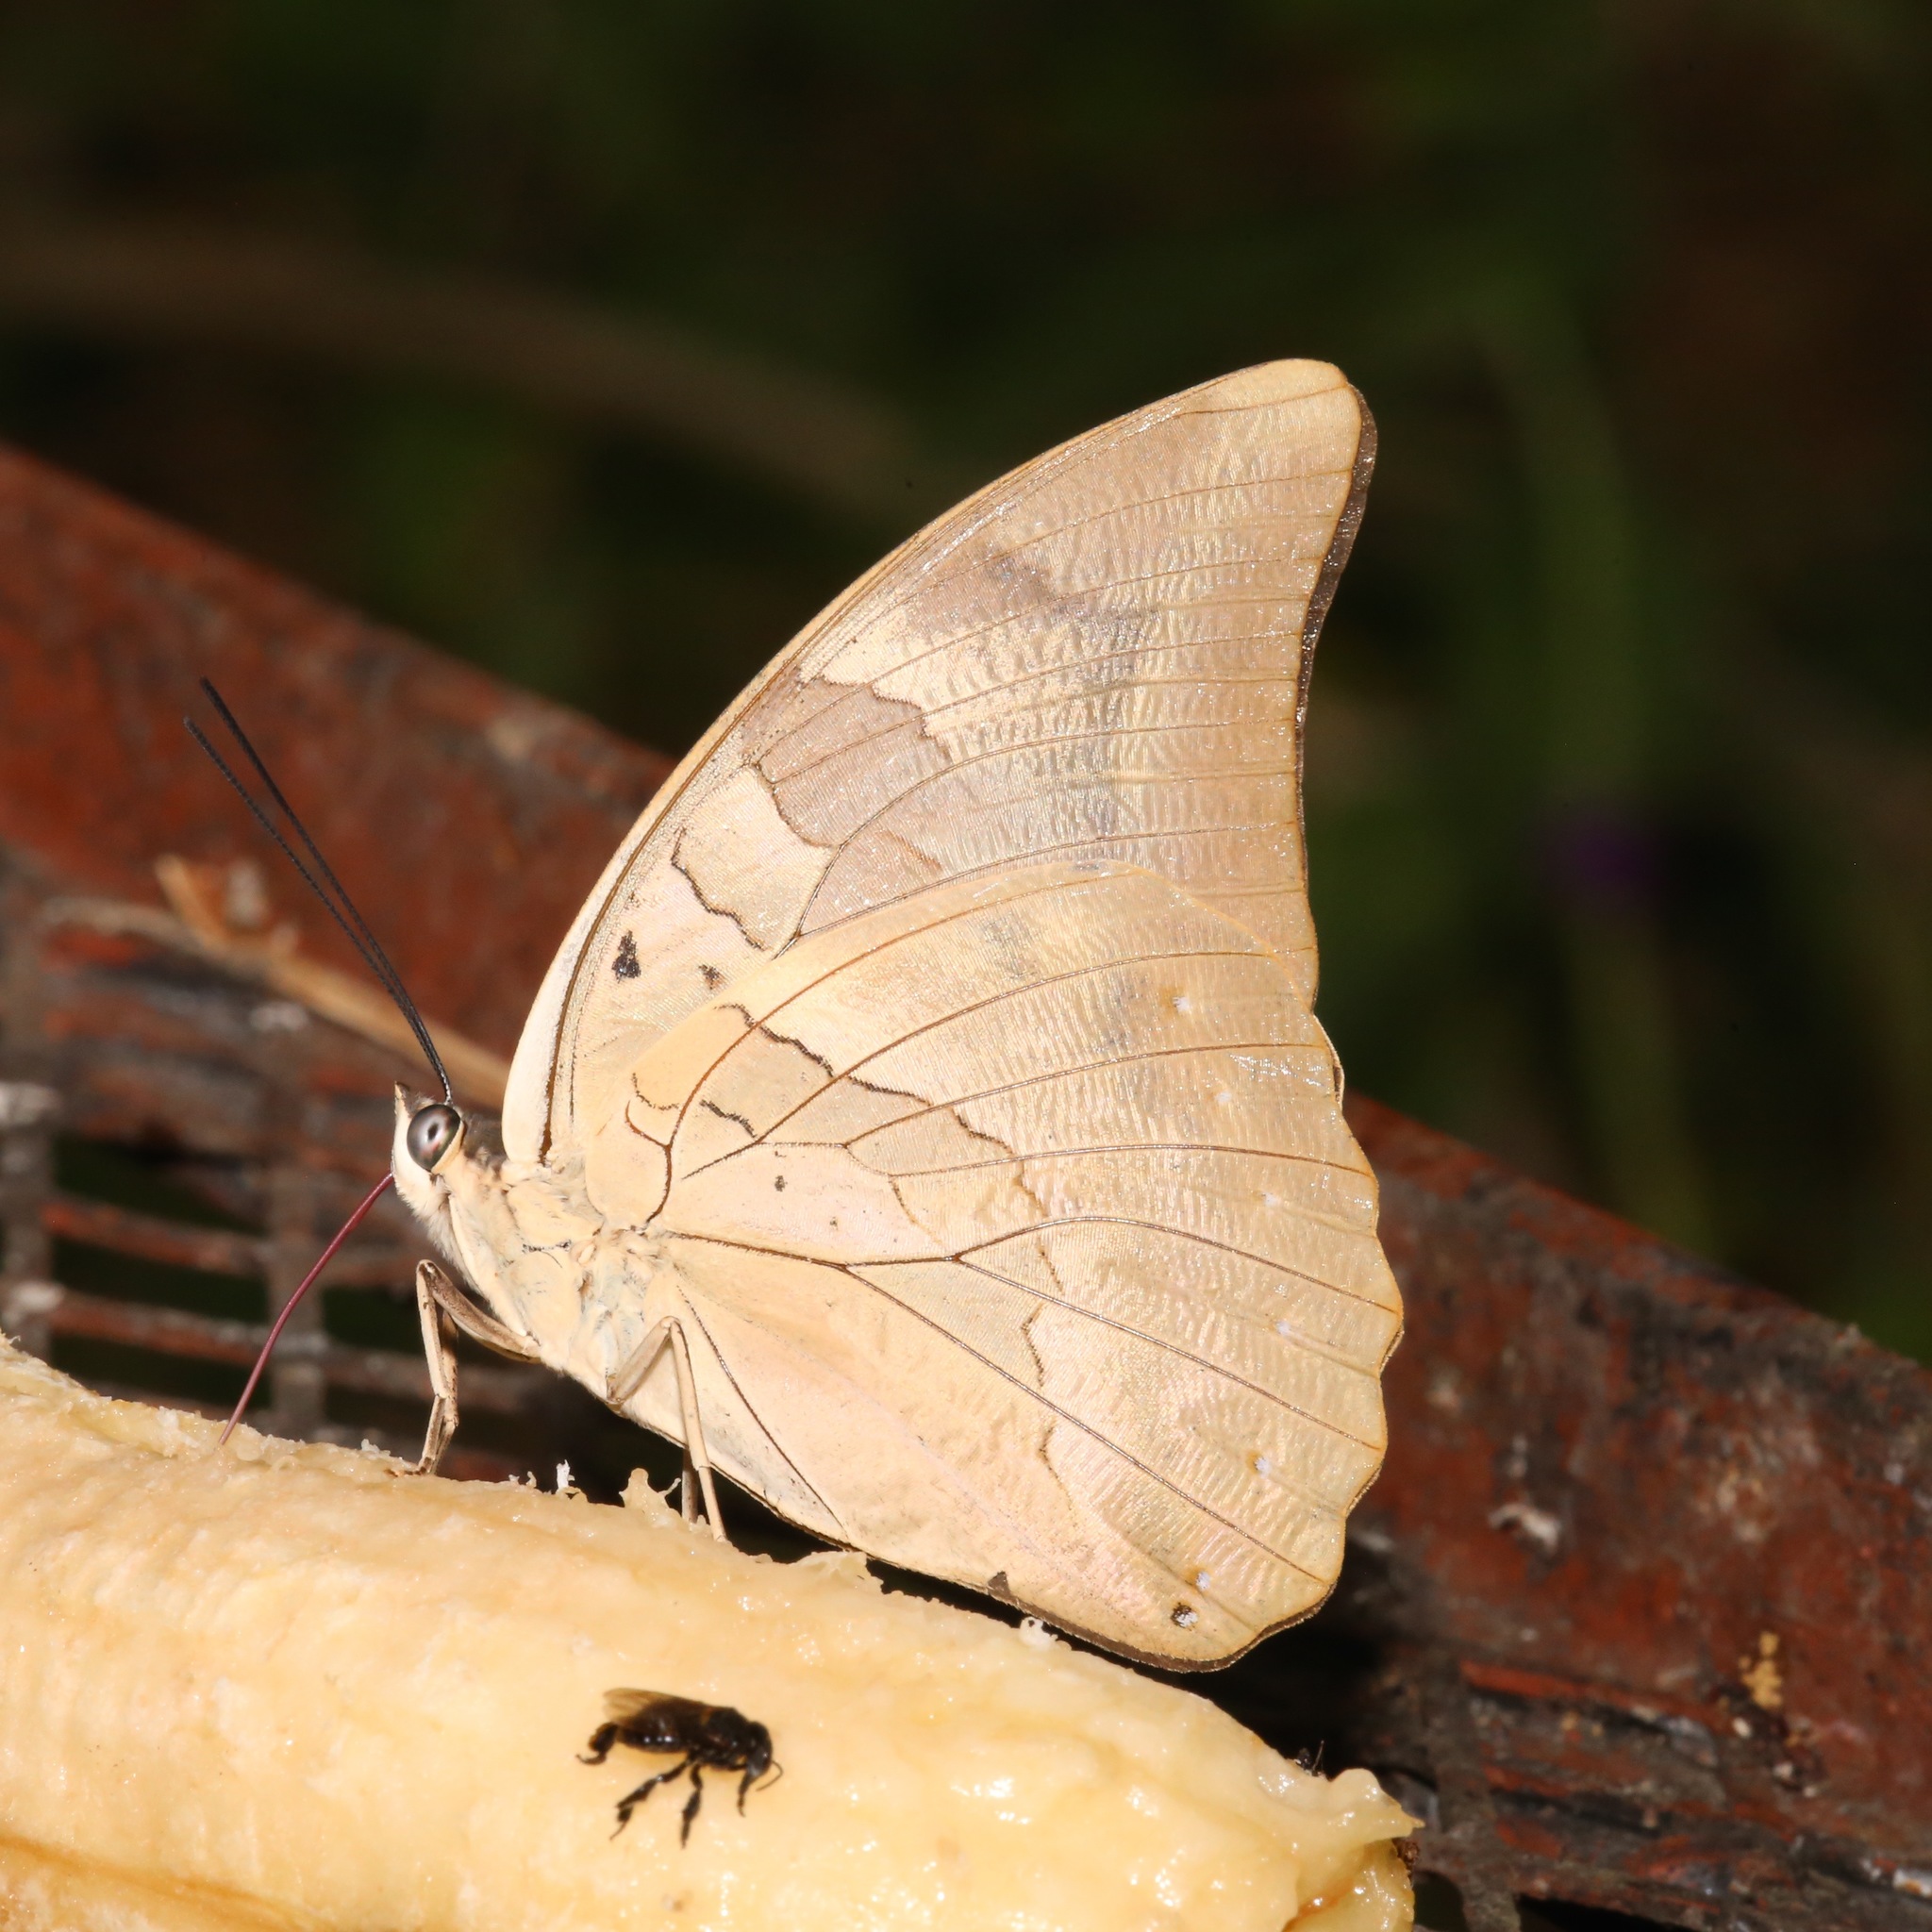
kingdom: Animalia
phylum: Arthropoda
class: Insecta
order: Lepidoptera
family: Nymphalidae
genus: Prepona
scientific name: Prepona demophon
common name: One-spotted prepona
